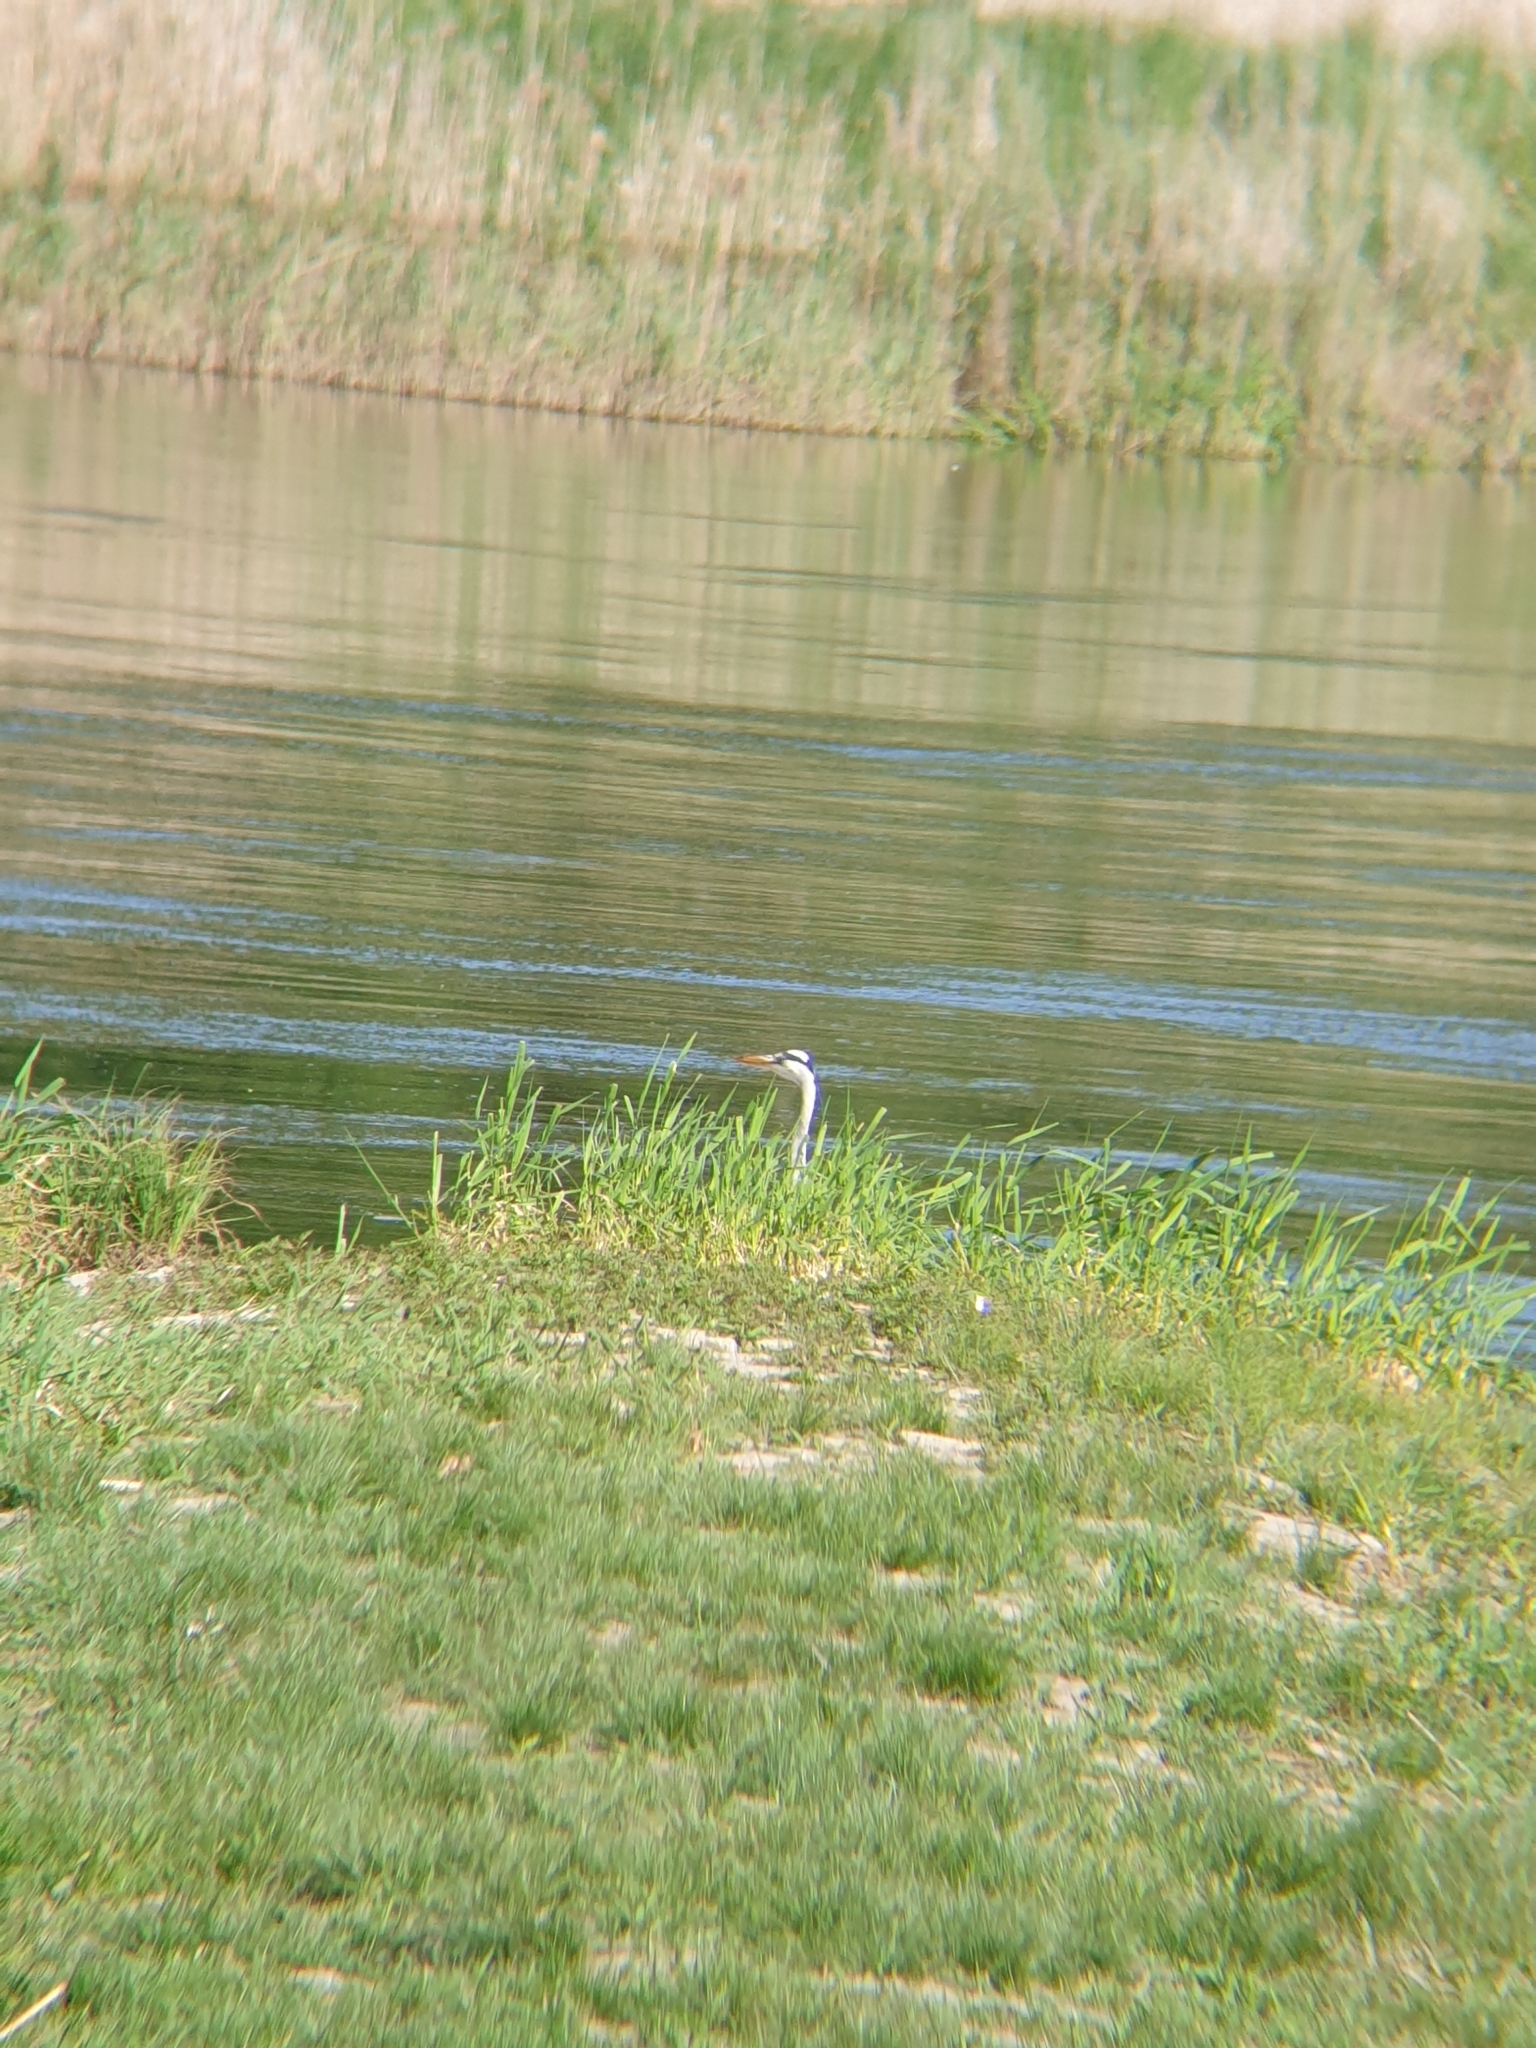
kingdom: Animalia
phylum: Chordata
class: Aves
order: Pelecaniformes
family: Ardeidae
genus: Ardea
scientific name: Ardea cinerea
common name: Grey heron
